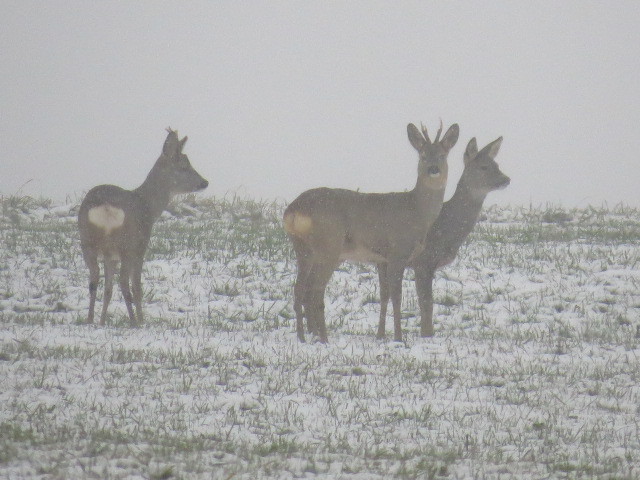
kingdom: Animalia
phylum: Chordata
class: Mammalia
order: Artiodactyla
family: Cervidae
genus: Capreolus
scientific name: Capreolus capreolus
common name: Western roe deer
